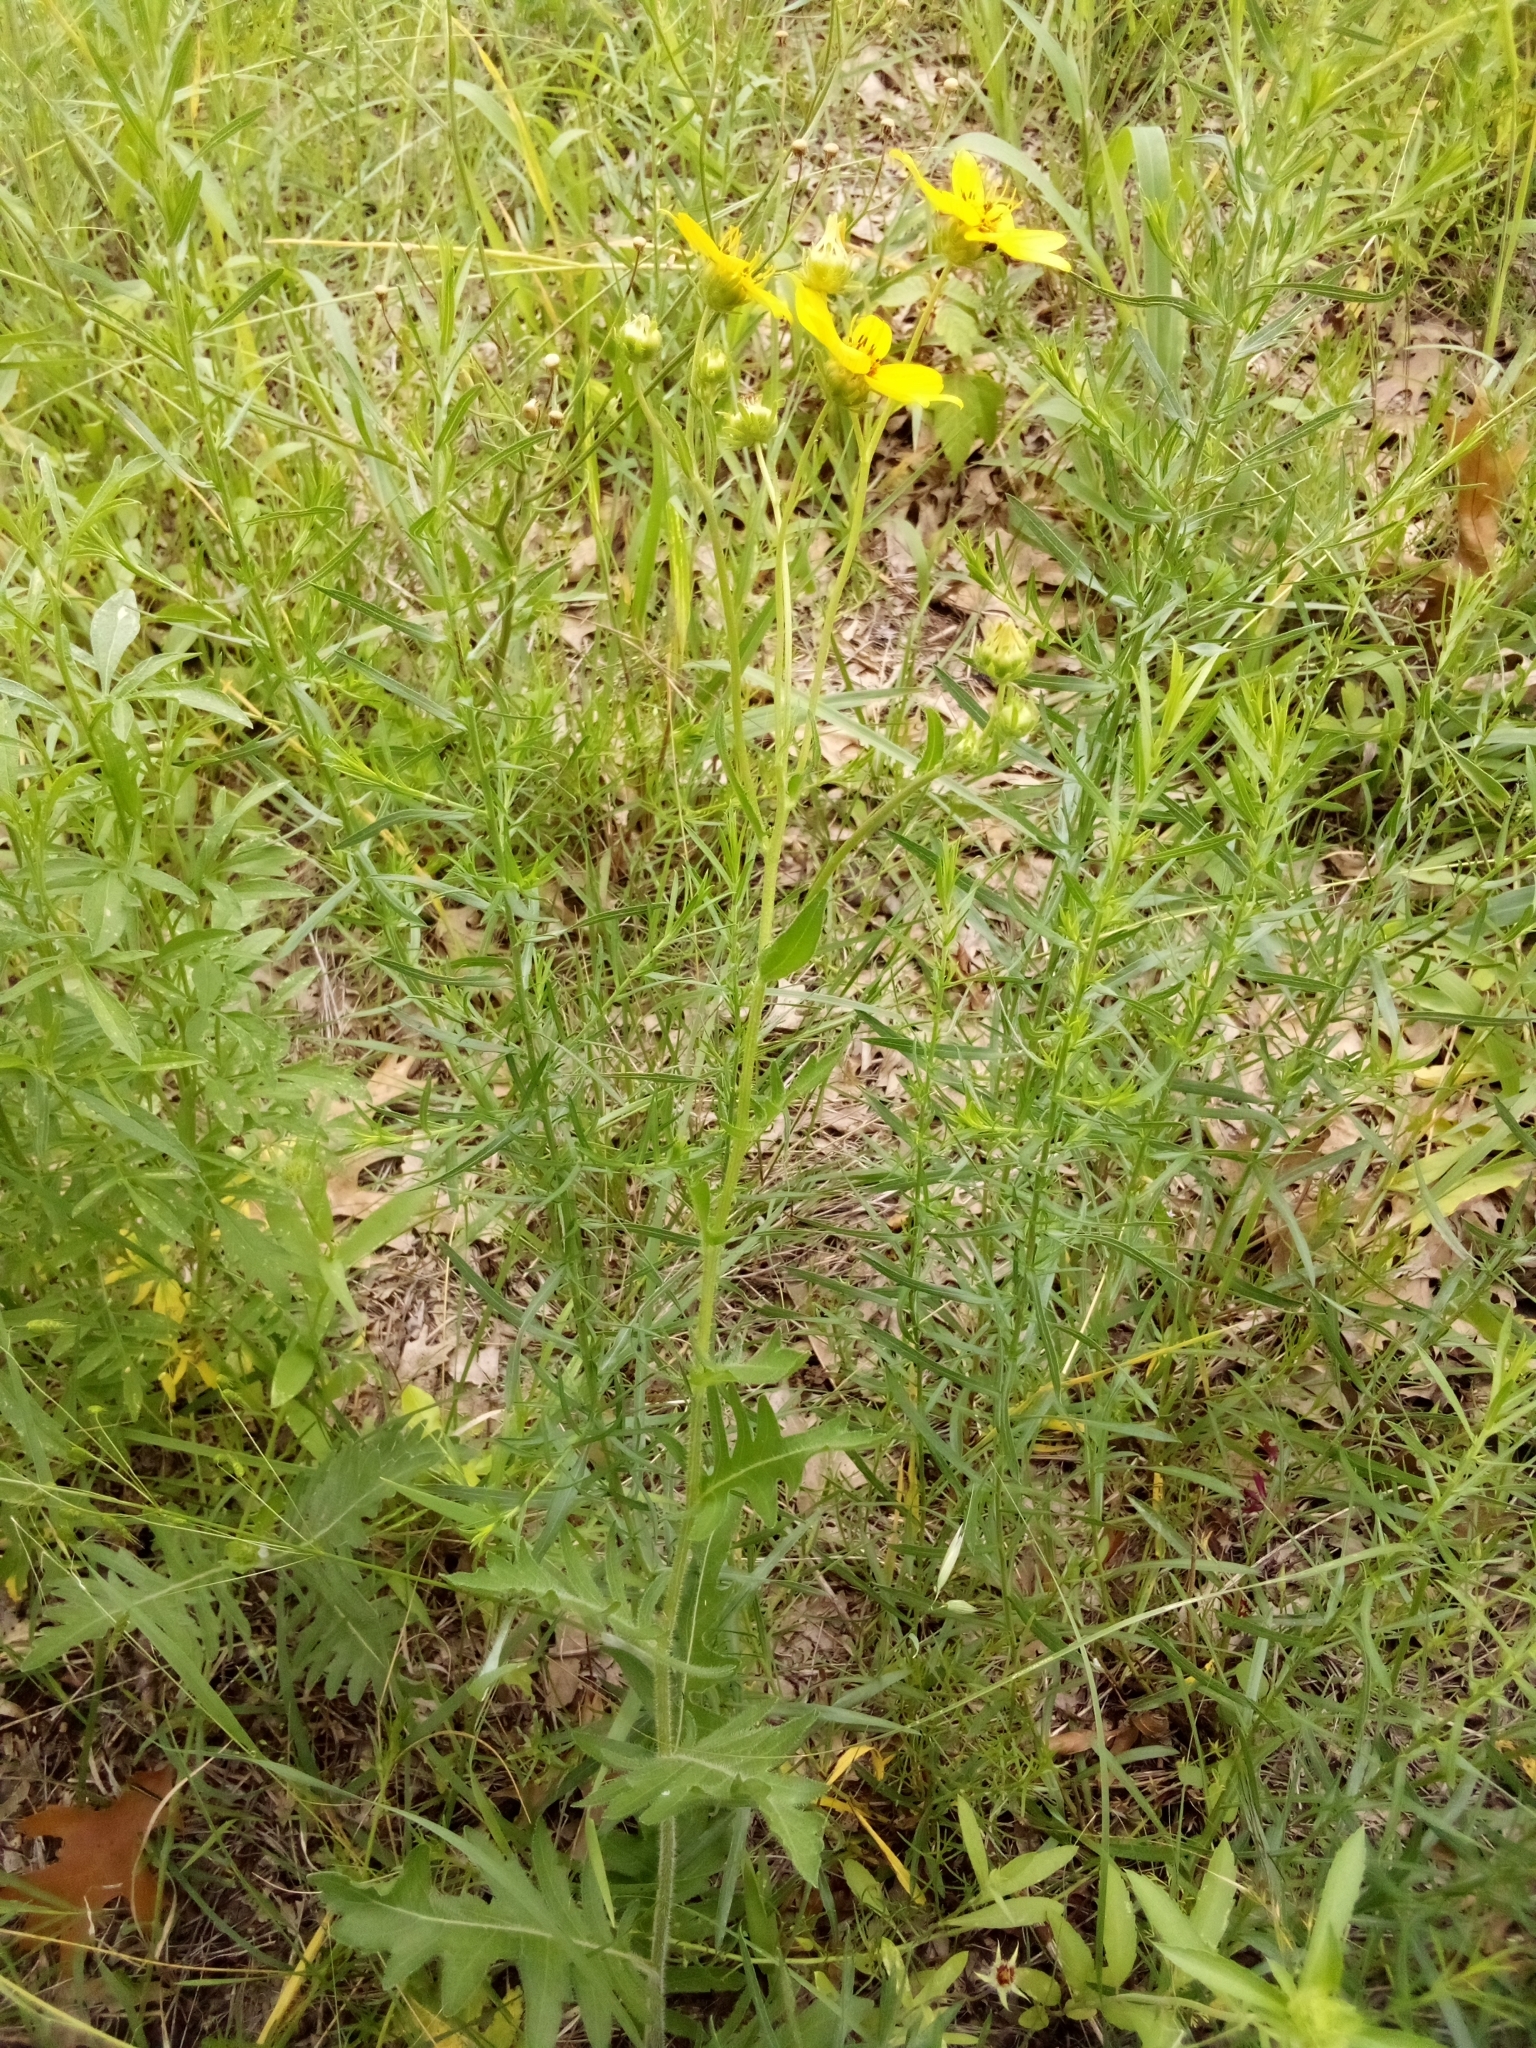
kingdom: Plantae
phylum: Tracheophyta
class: Magnoliopsida
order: Asterales
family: Asteraceae
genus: Engelmannia
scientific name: Engelmannia peristenia
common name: Engelmann's daisy
